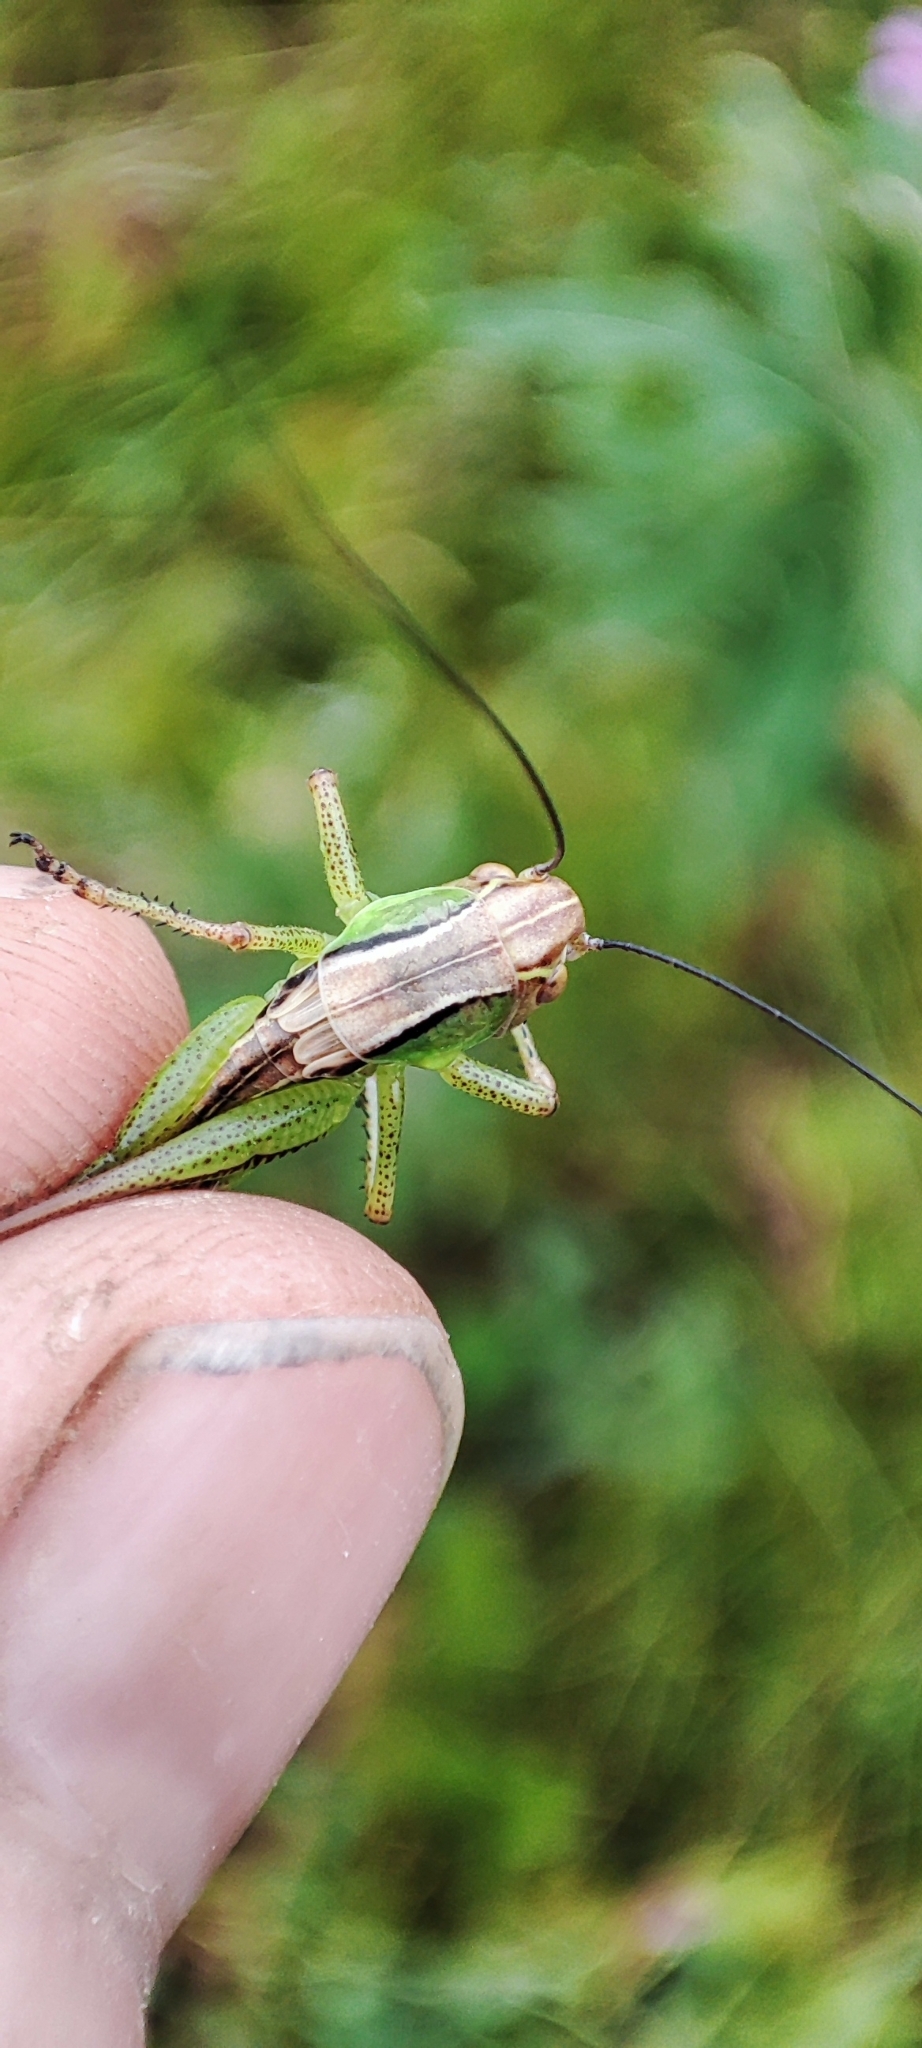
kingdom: Animalia
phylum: Arthropoda
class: Insecta
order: Orthoptera
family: Tettigoniidae
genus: Roeseliana
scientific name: Roeseliana roeselii
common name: Roesel's bush cricket
